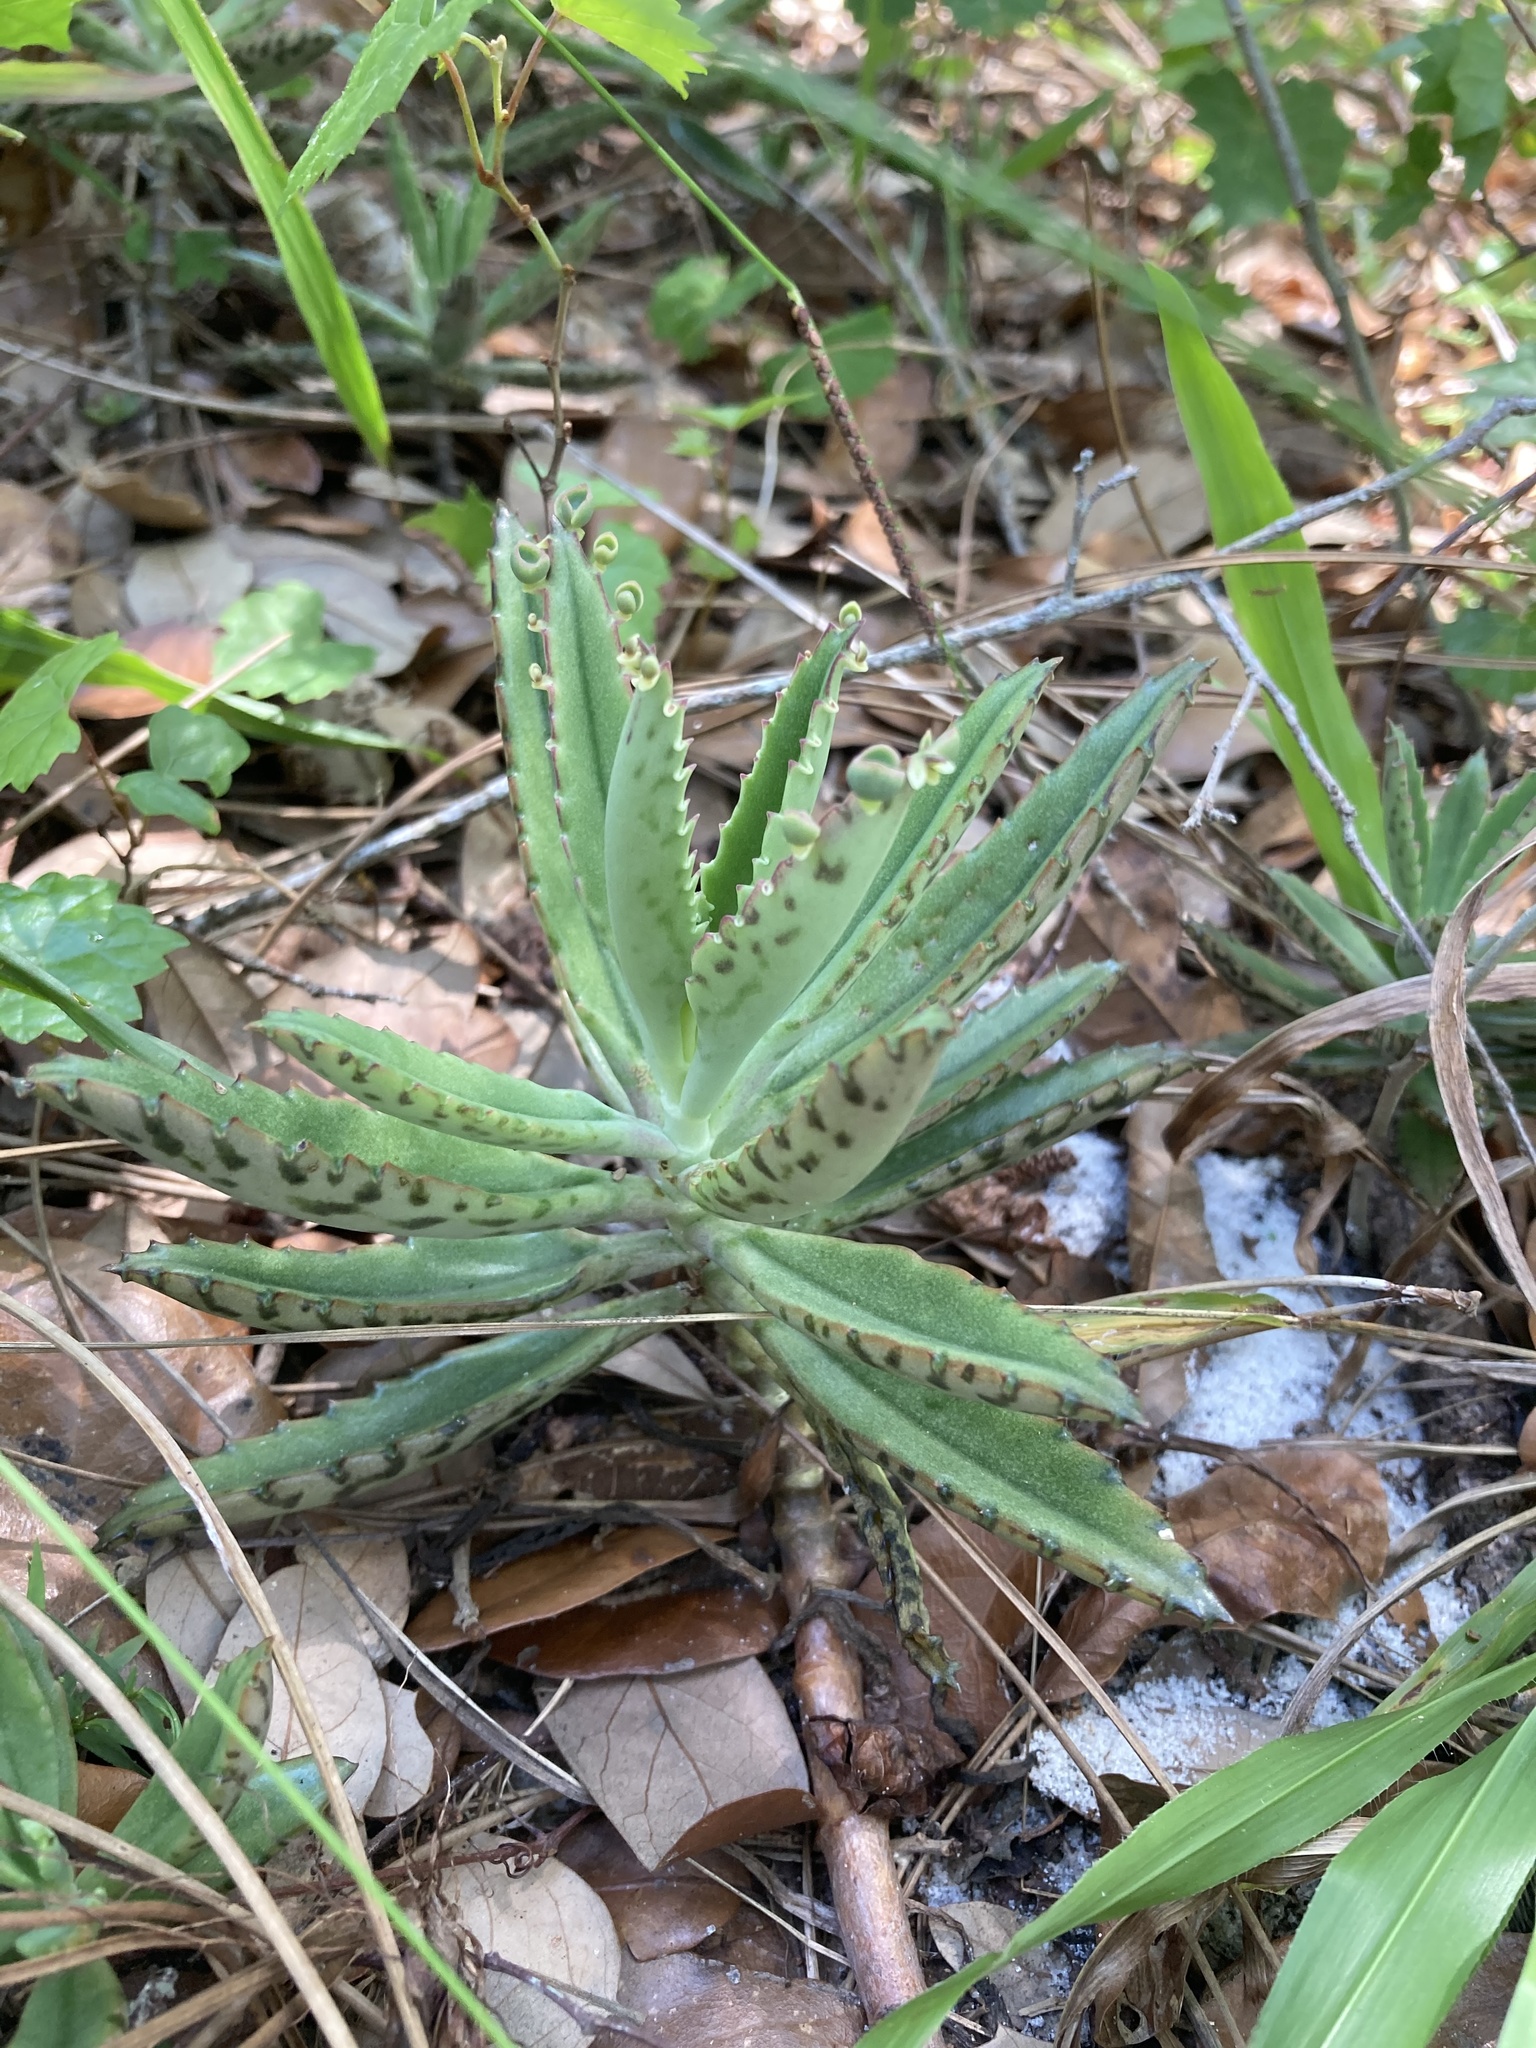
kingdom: Plantae
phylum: Tracheophyta
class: Magnoliopsida
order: Saxifragales
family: Crassulaceae
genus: Kalanchoe
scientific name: Kalanchoe houghtonii
